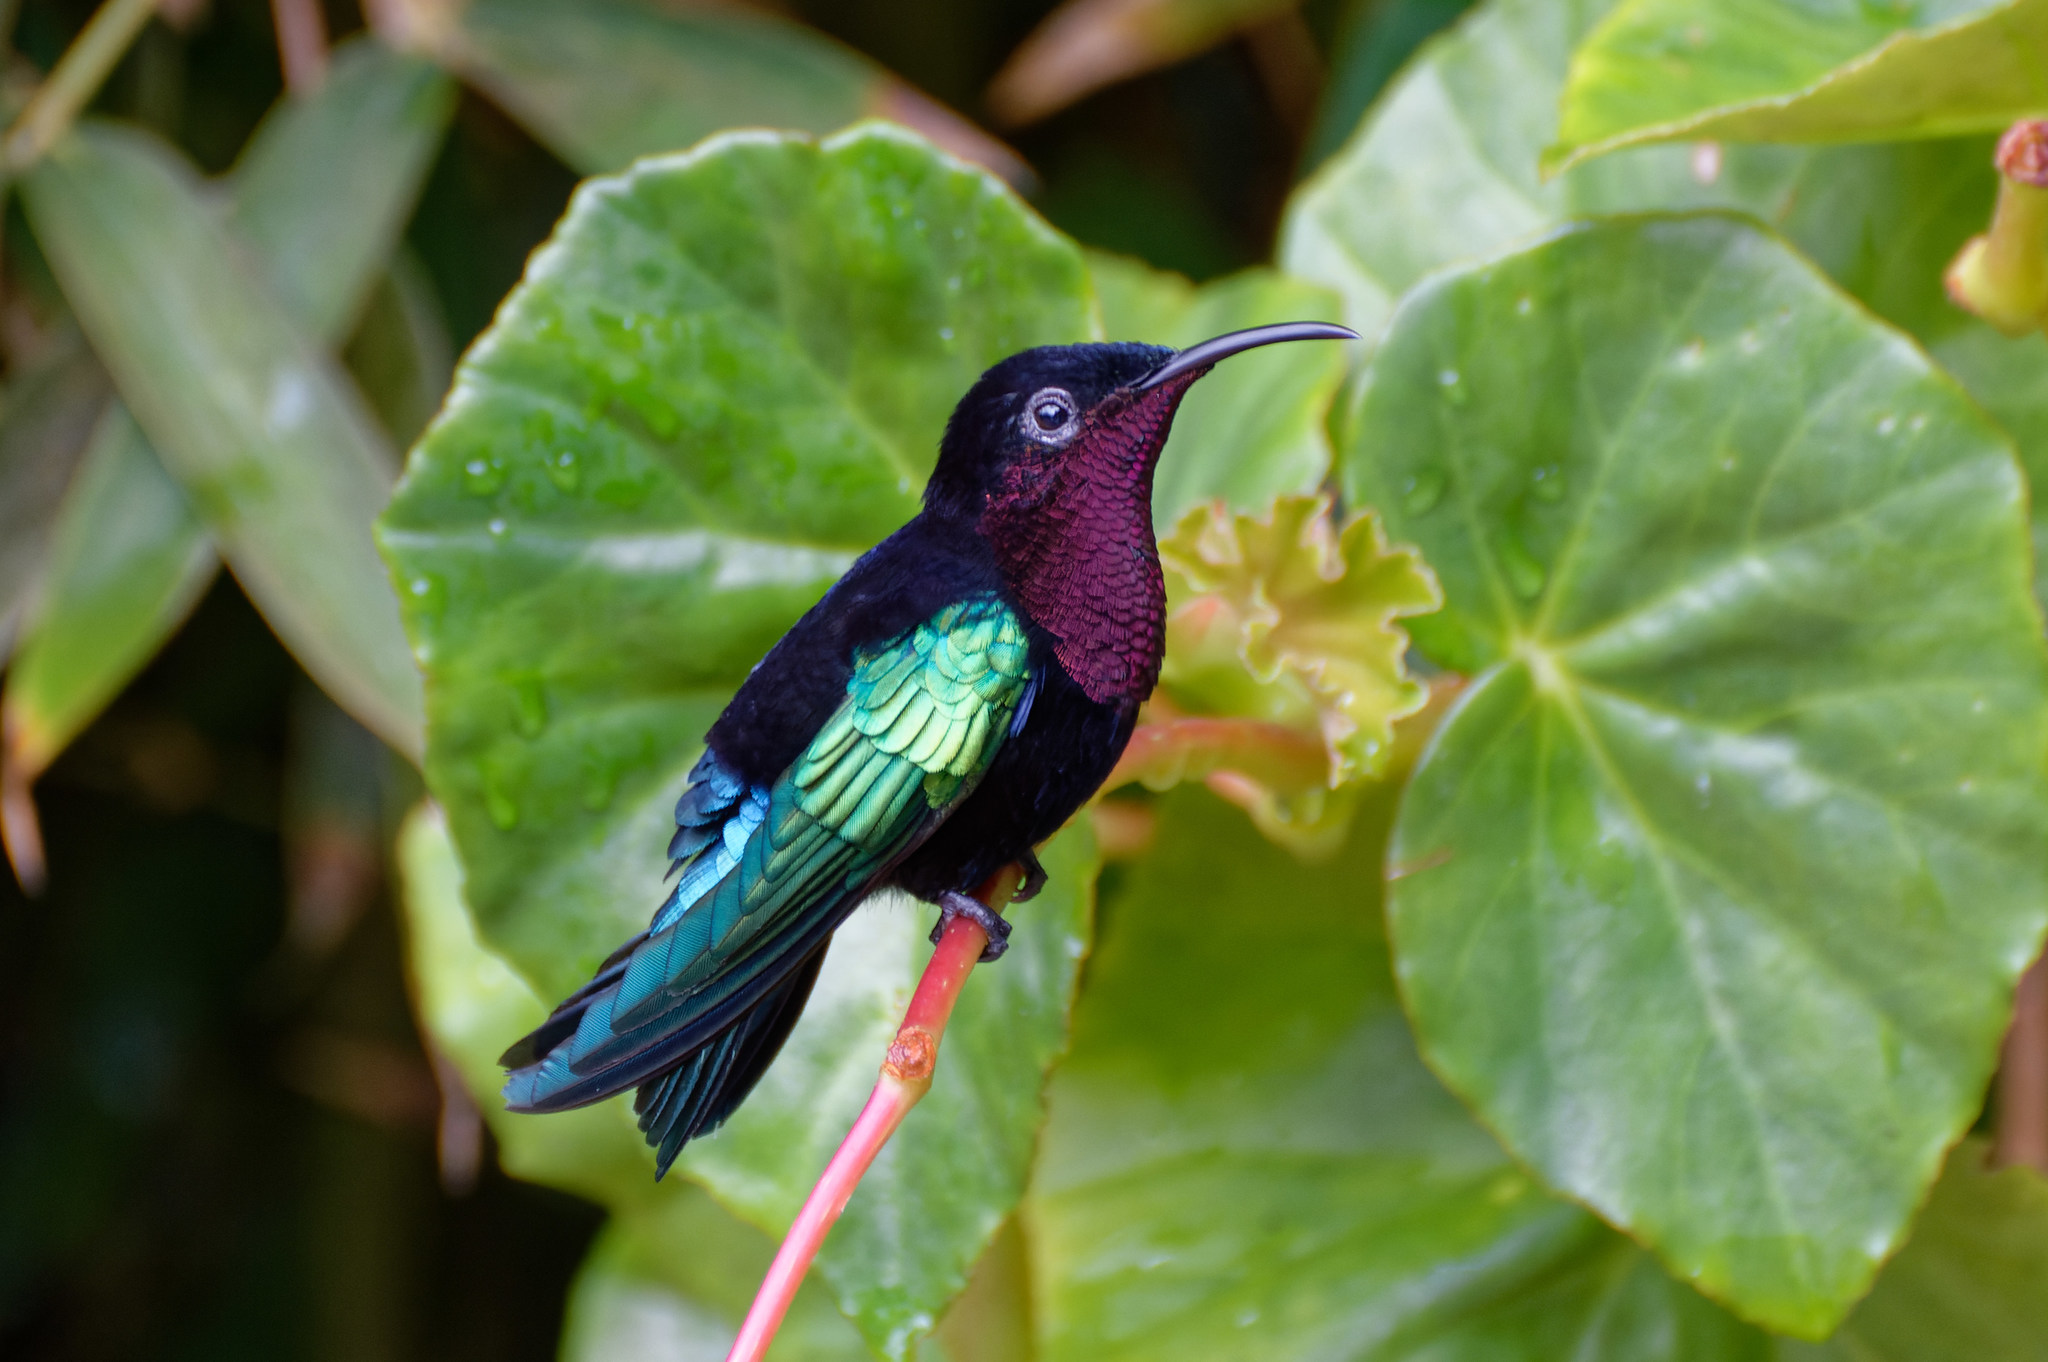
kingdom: Animalia
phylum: Chordata
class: Aves
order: Apodiformes
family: Trochilidae
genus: Eulampis
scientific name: Eulampis jugularis
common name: Purple-throated carib
